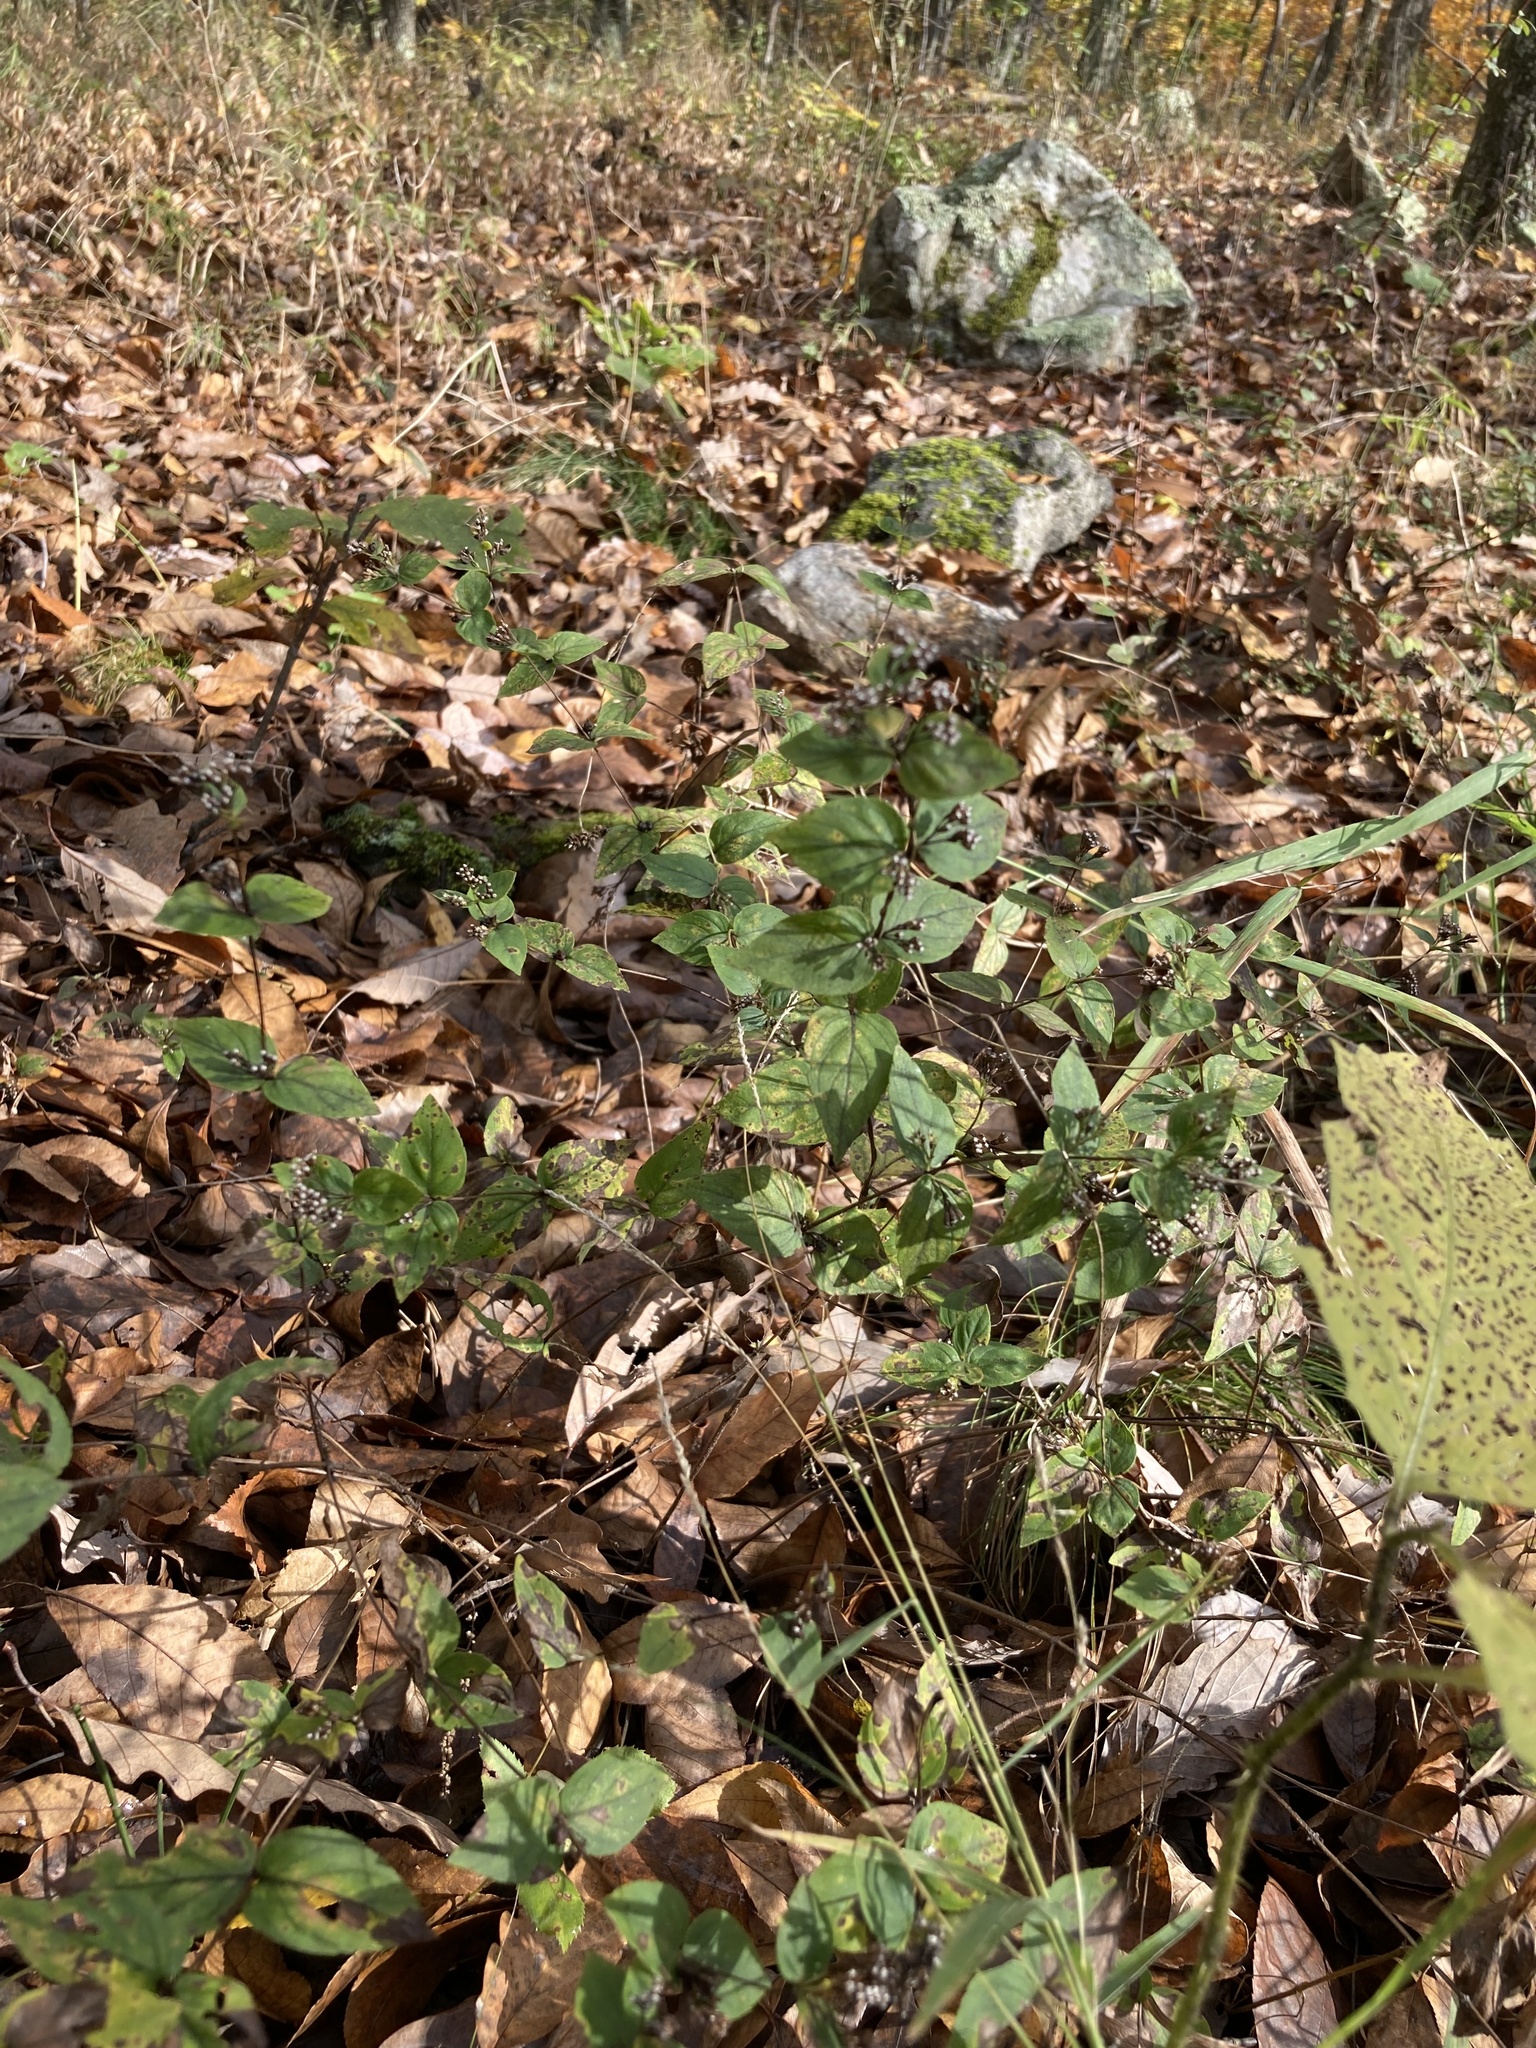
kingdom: Plantae
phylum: Tracheophyta
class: Magnoliopsida
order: Lamiales
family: Lamiaceae
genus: Cunila
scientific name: Cunila origanoides
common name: American dittany
